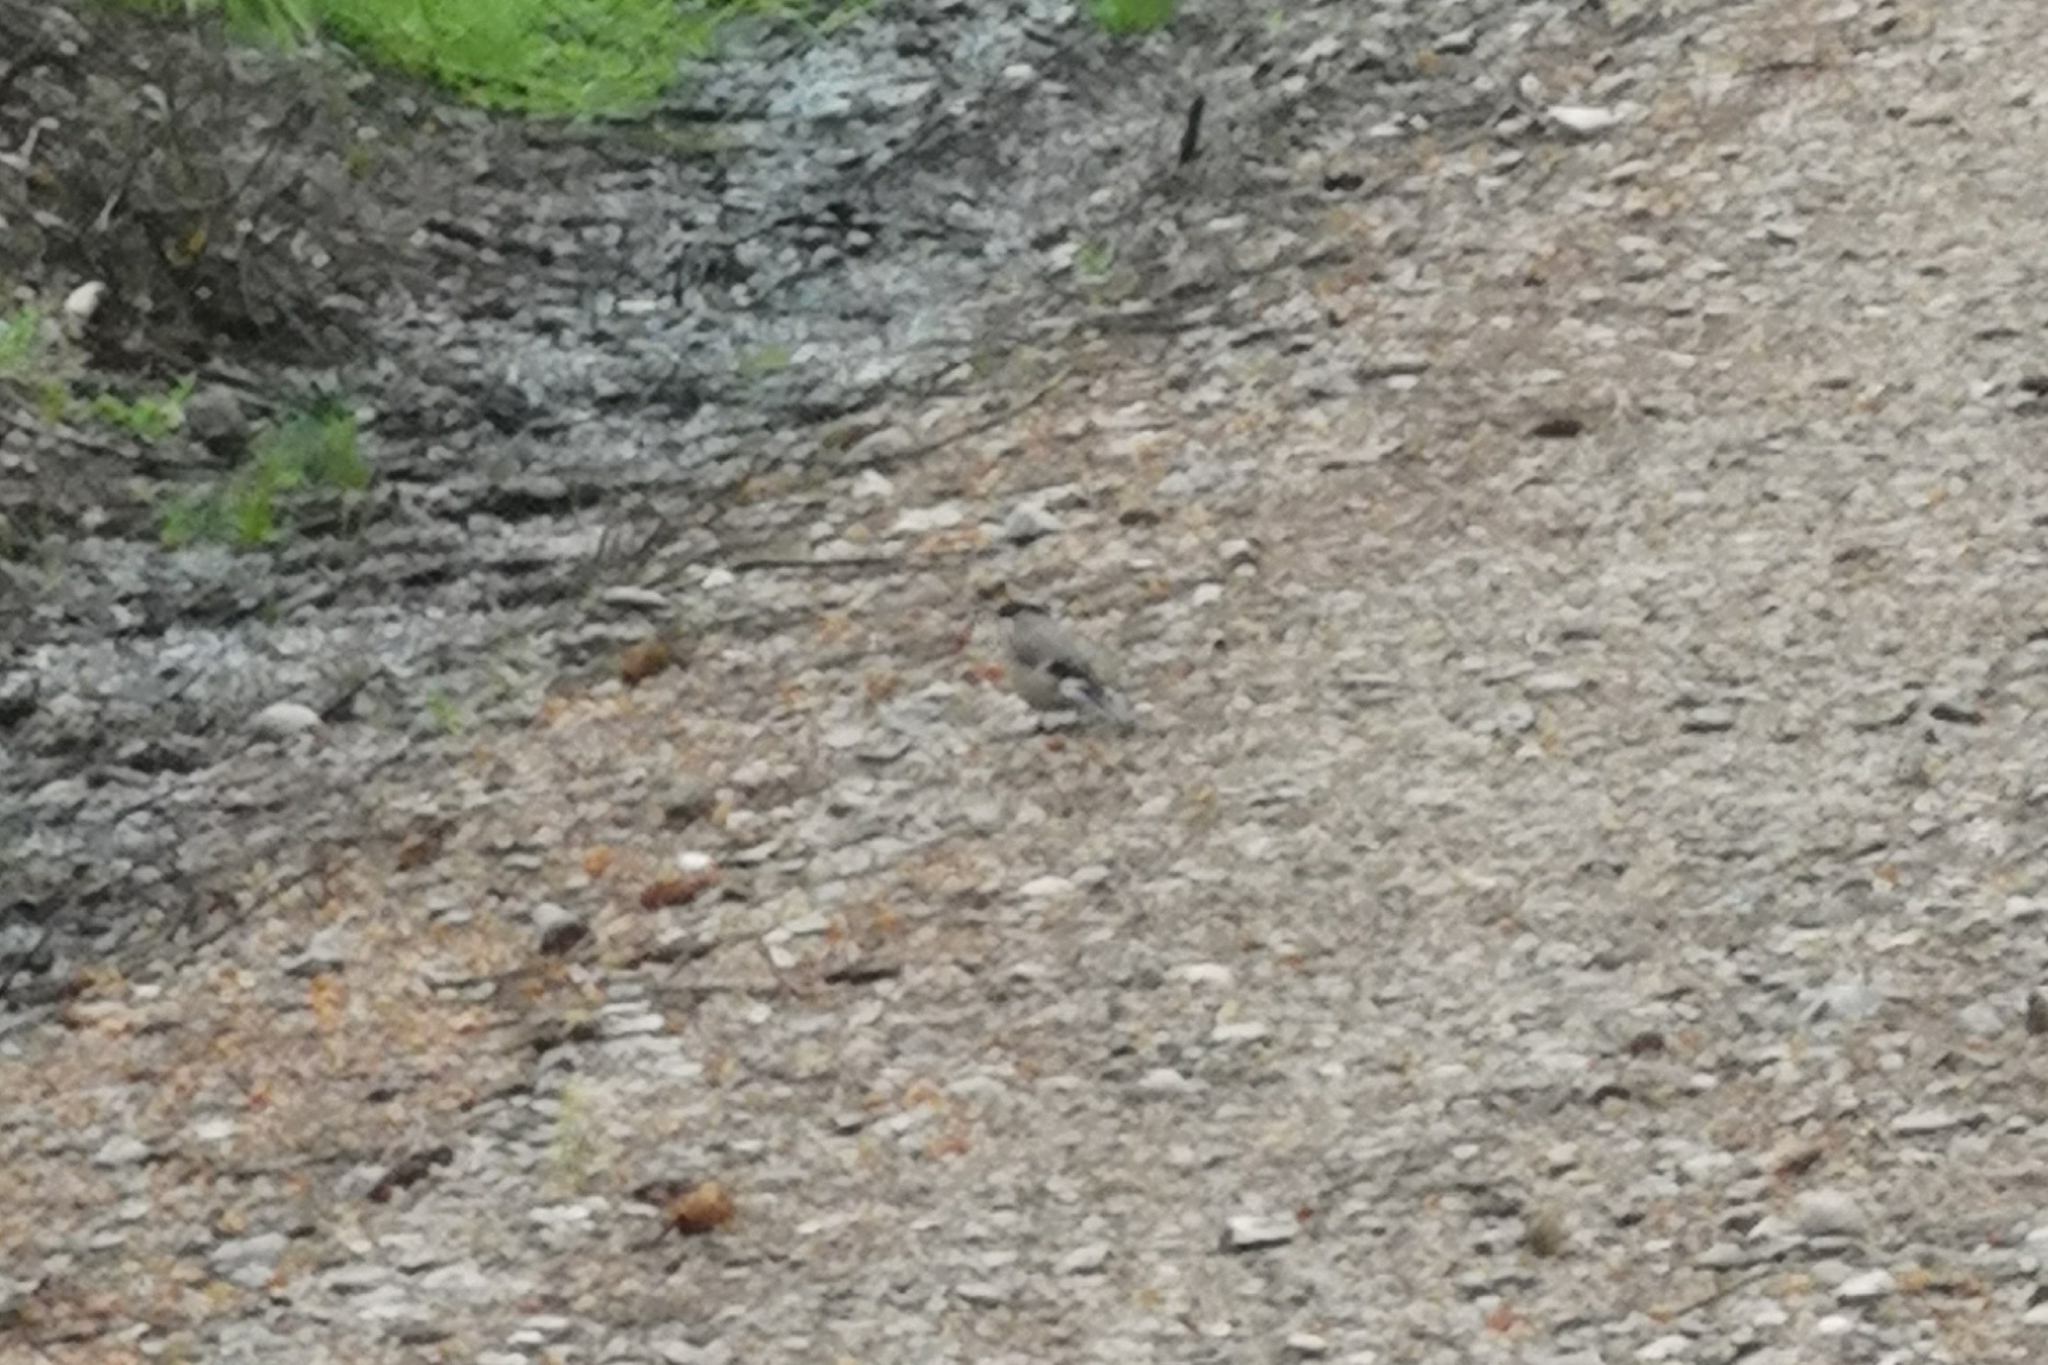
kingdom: Animalia
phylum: Chordata
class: Aves
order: Passeriformes
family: Fringillidae
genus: Pyrrhula
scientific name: Pyrrhula pyrrhula
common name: Eurasian bullfinch
